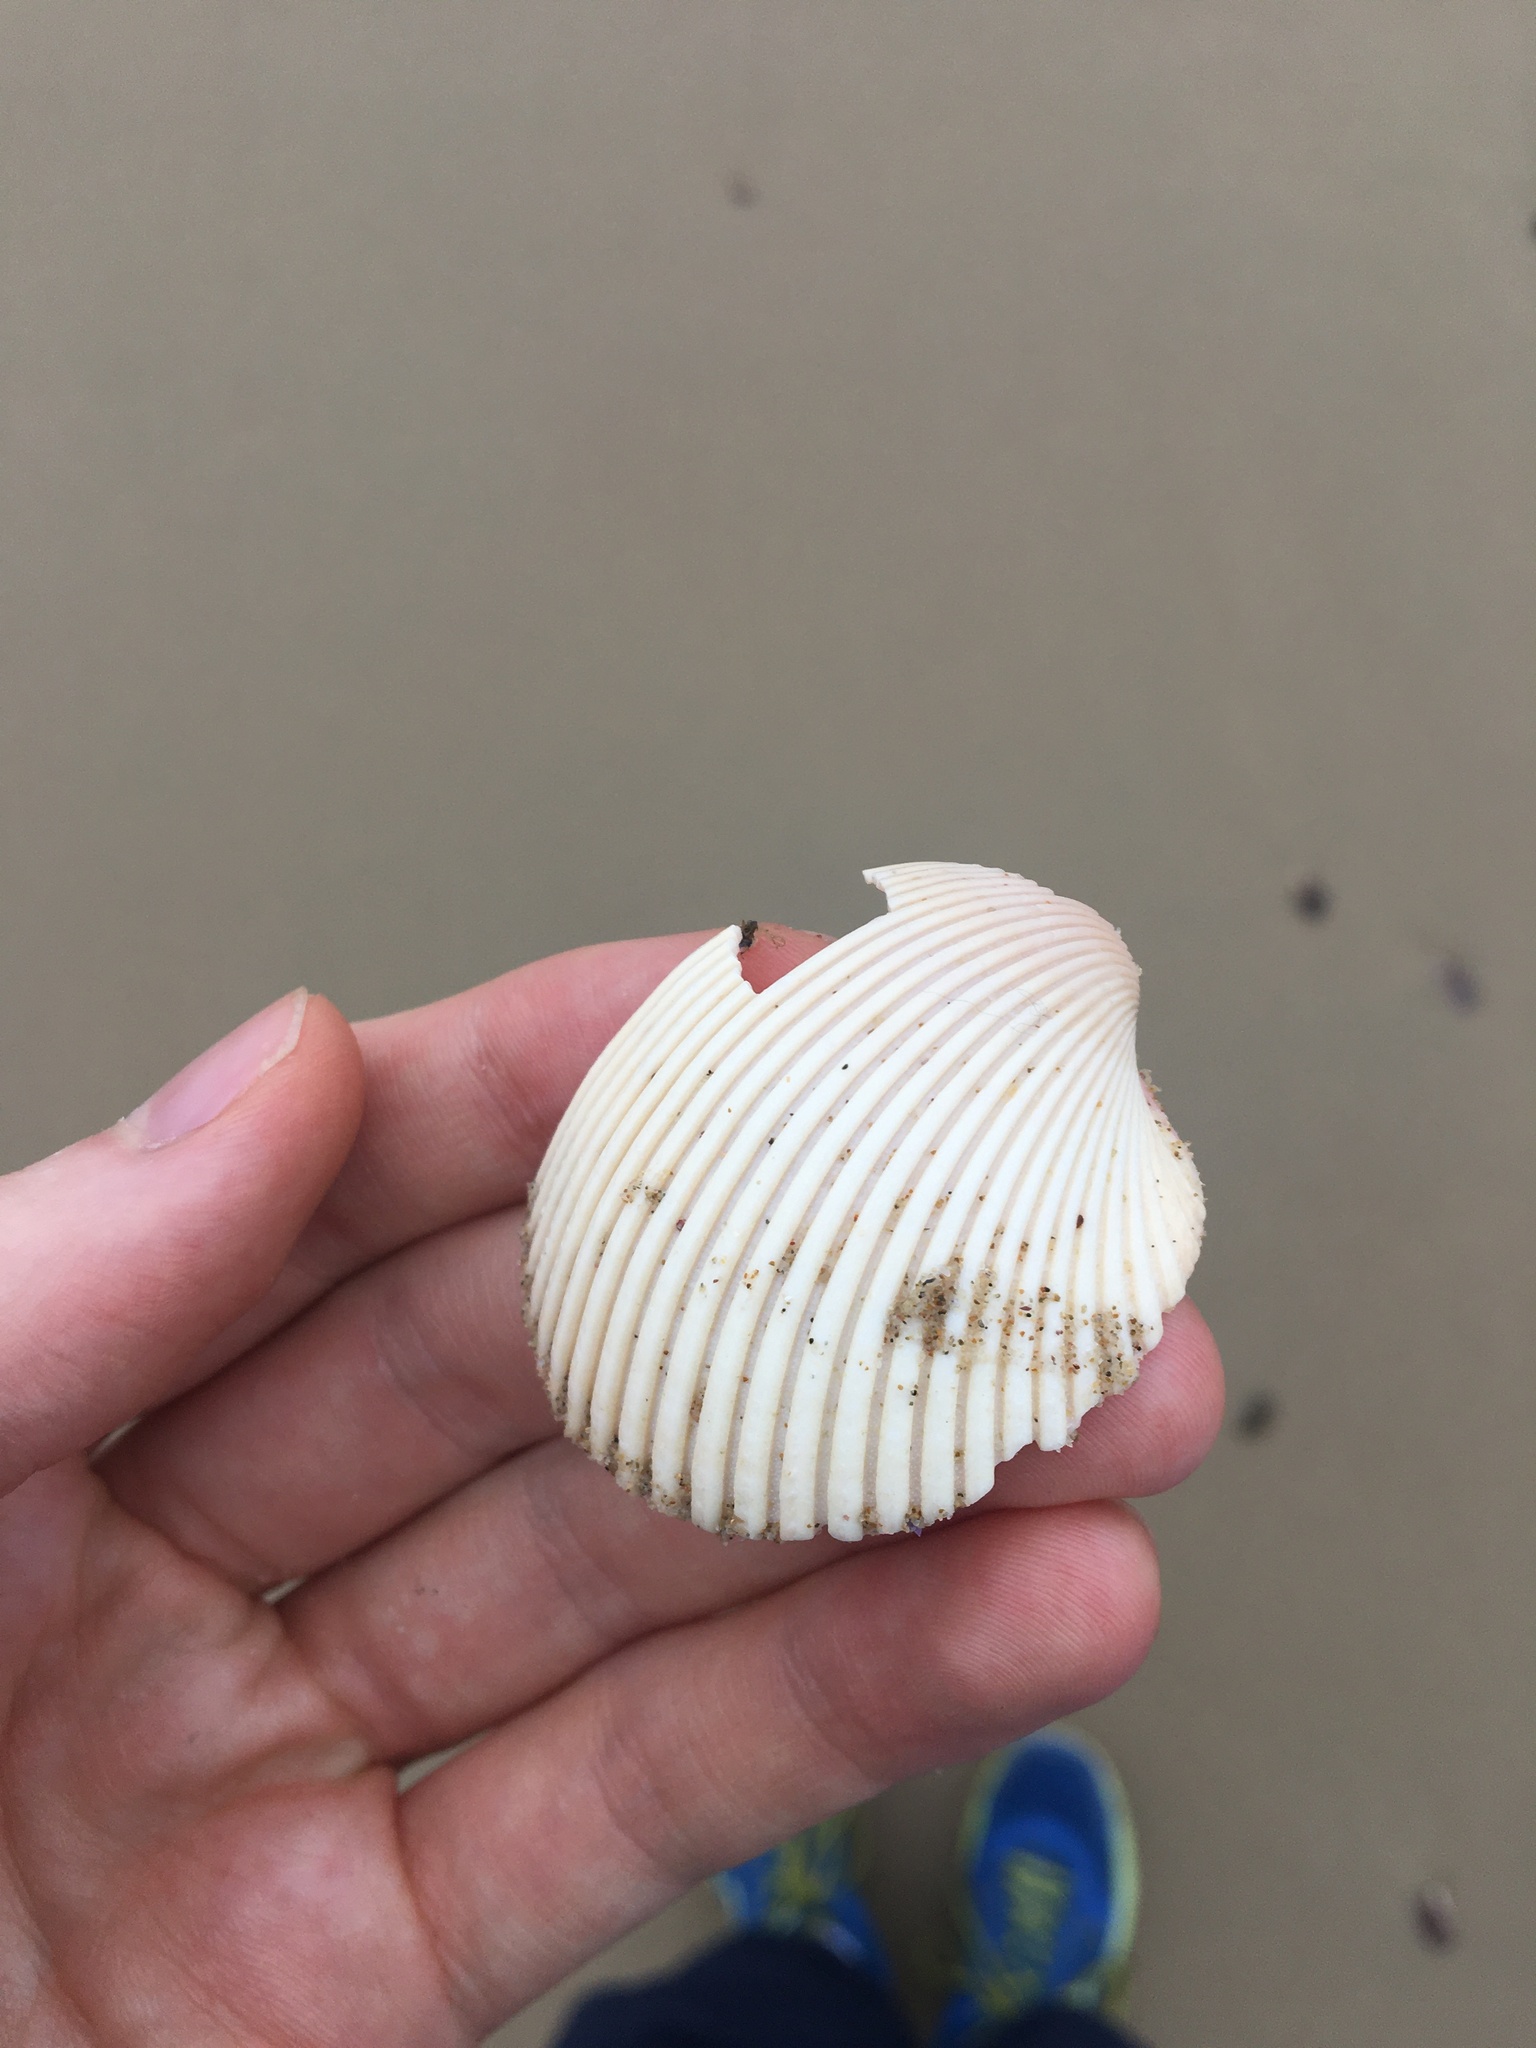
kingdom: Animalia
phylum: Mollusca
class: Bivalvia
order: Cardiida
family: Cardiidae
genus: Vepricardium
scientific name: Vepricardium multispinosum
